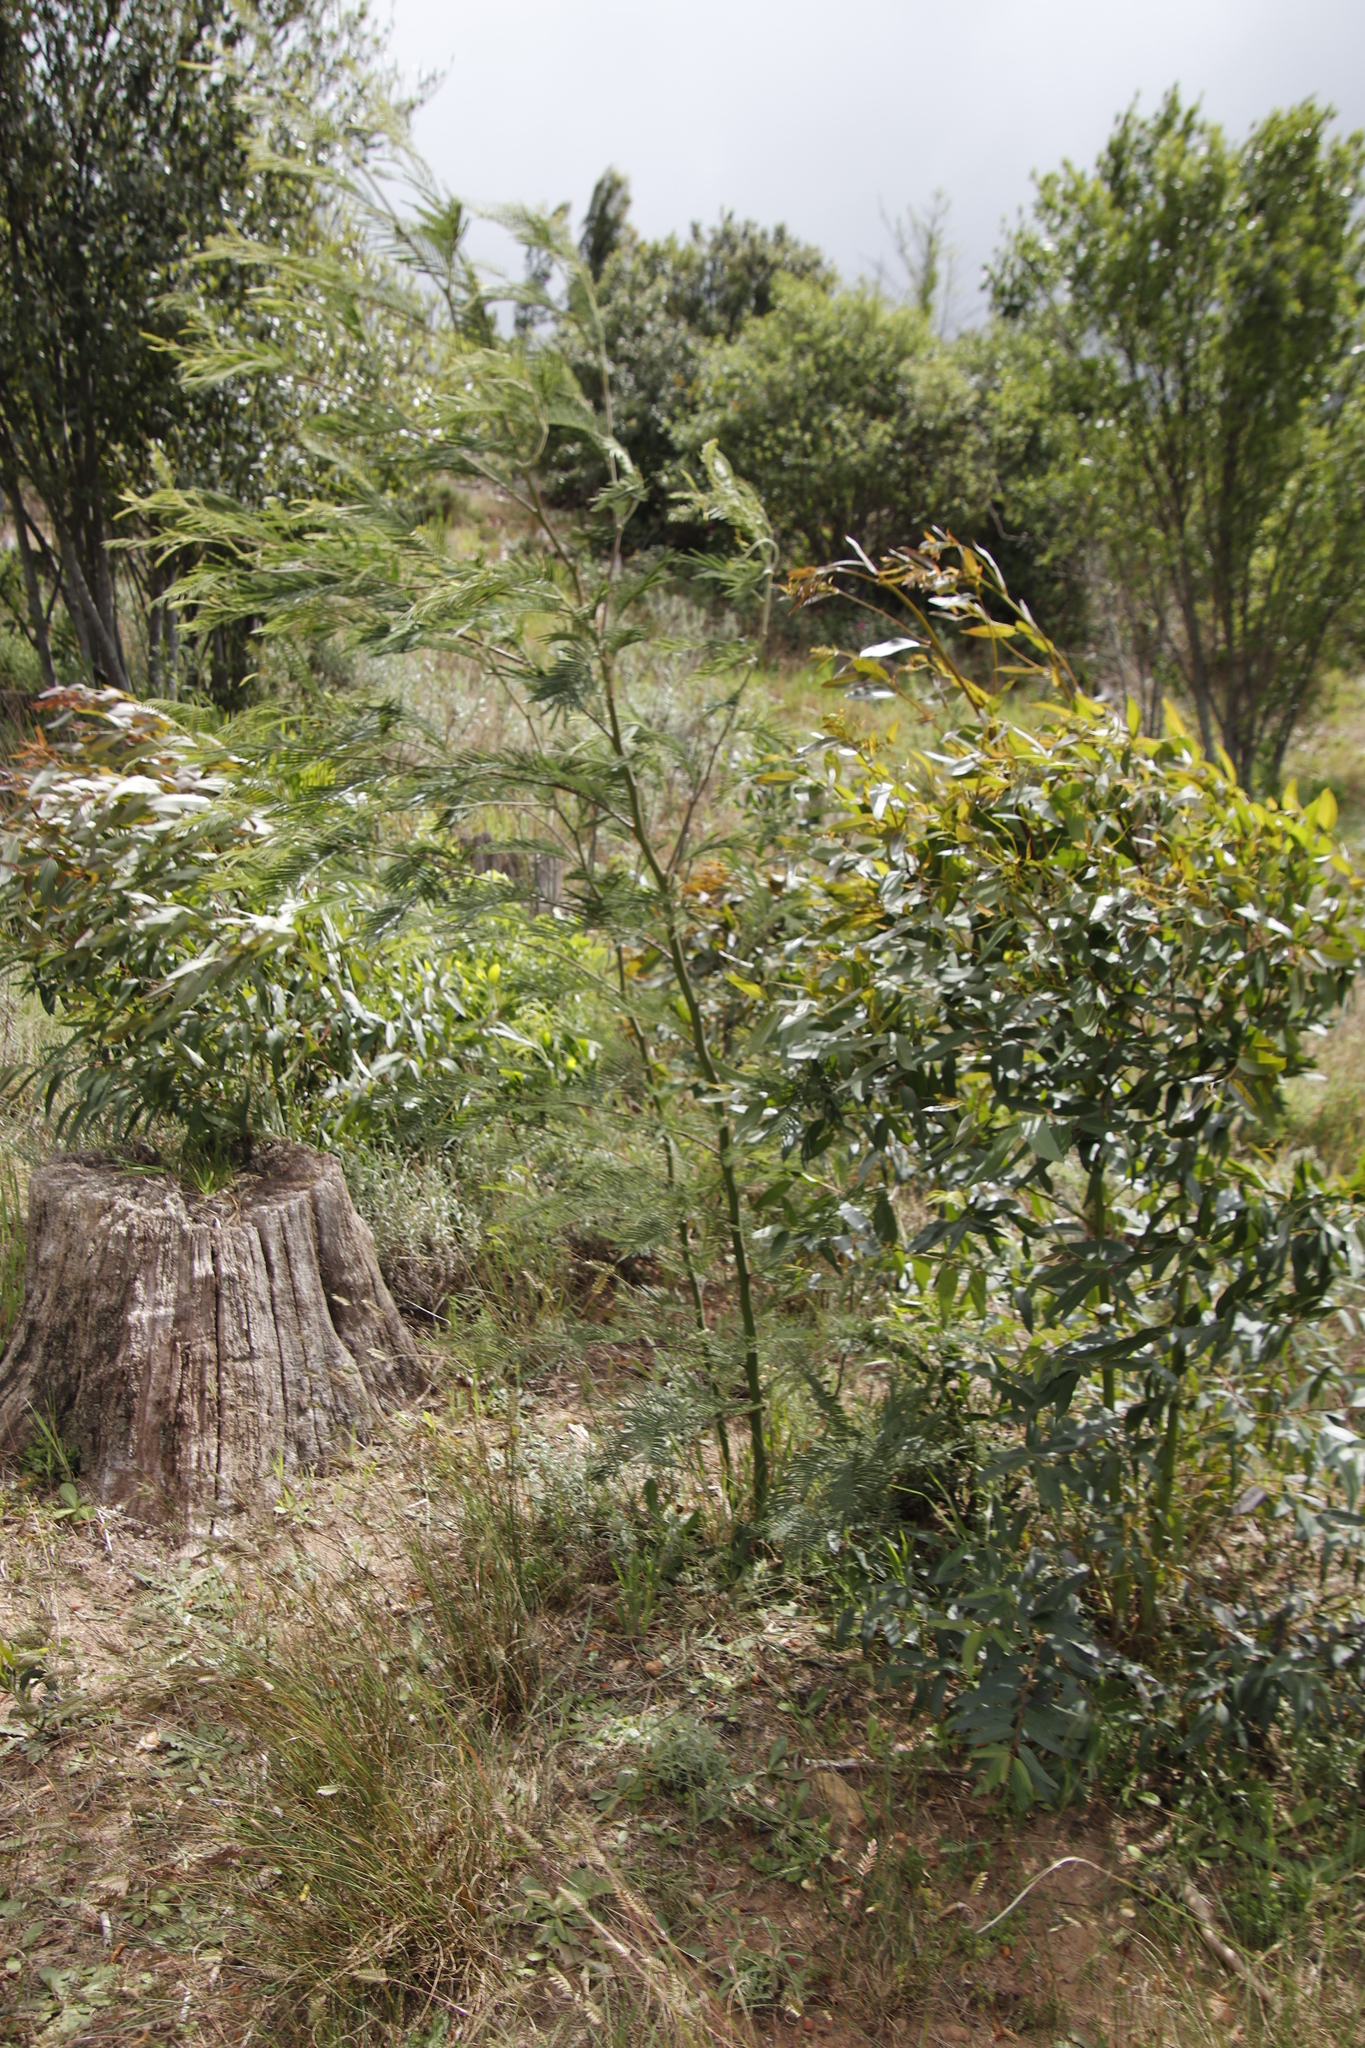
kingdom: Plantae
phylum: Tracheophyta
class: Magnoliopsida
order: Fabales
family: Fabaceae
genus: Acacia
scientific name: Acacia mearnsii
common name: Black wattle
